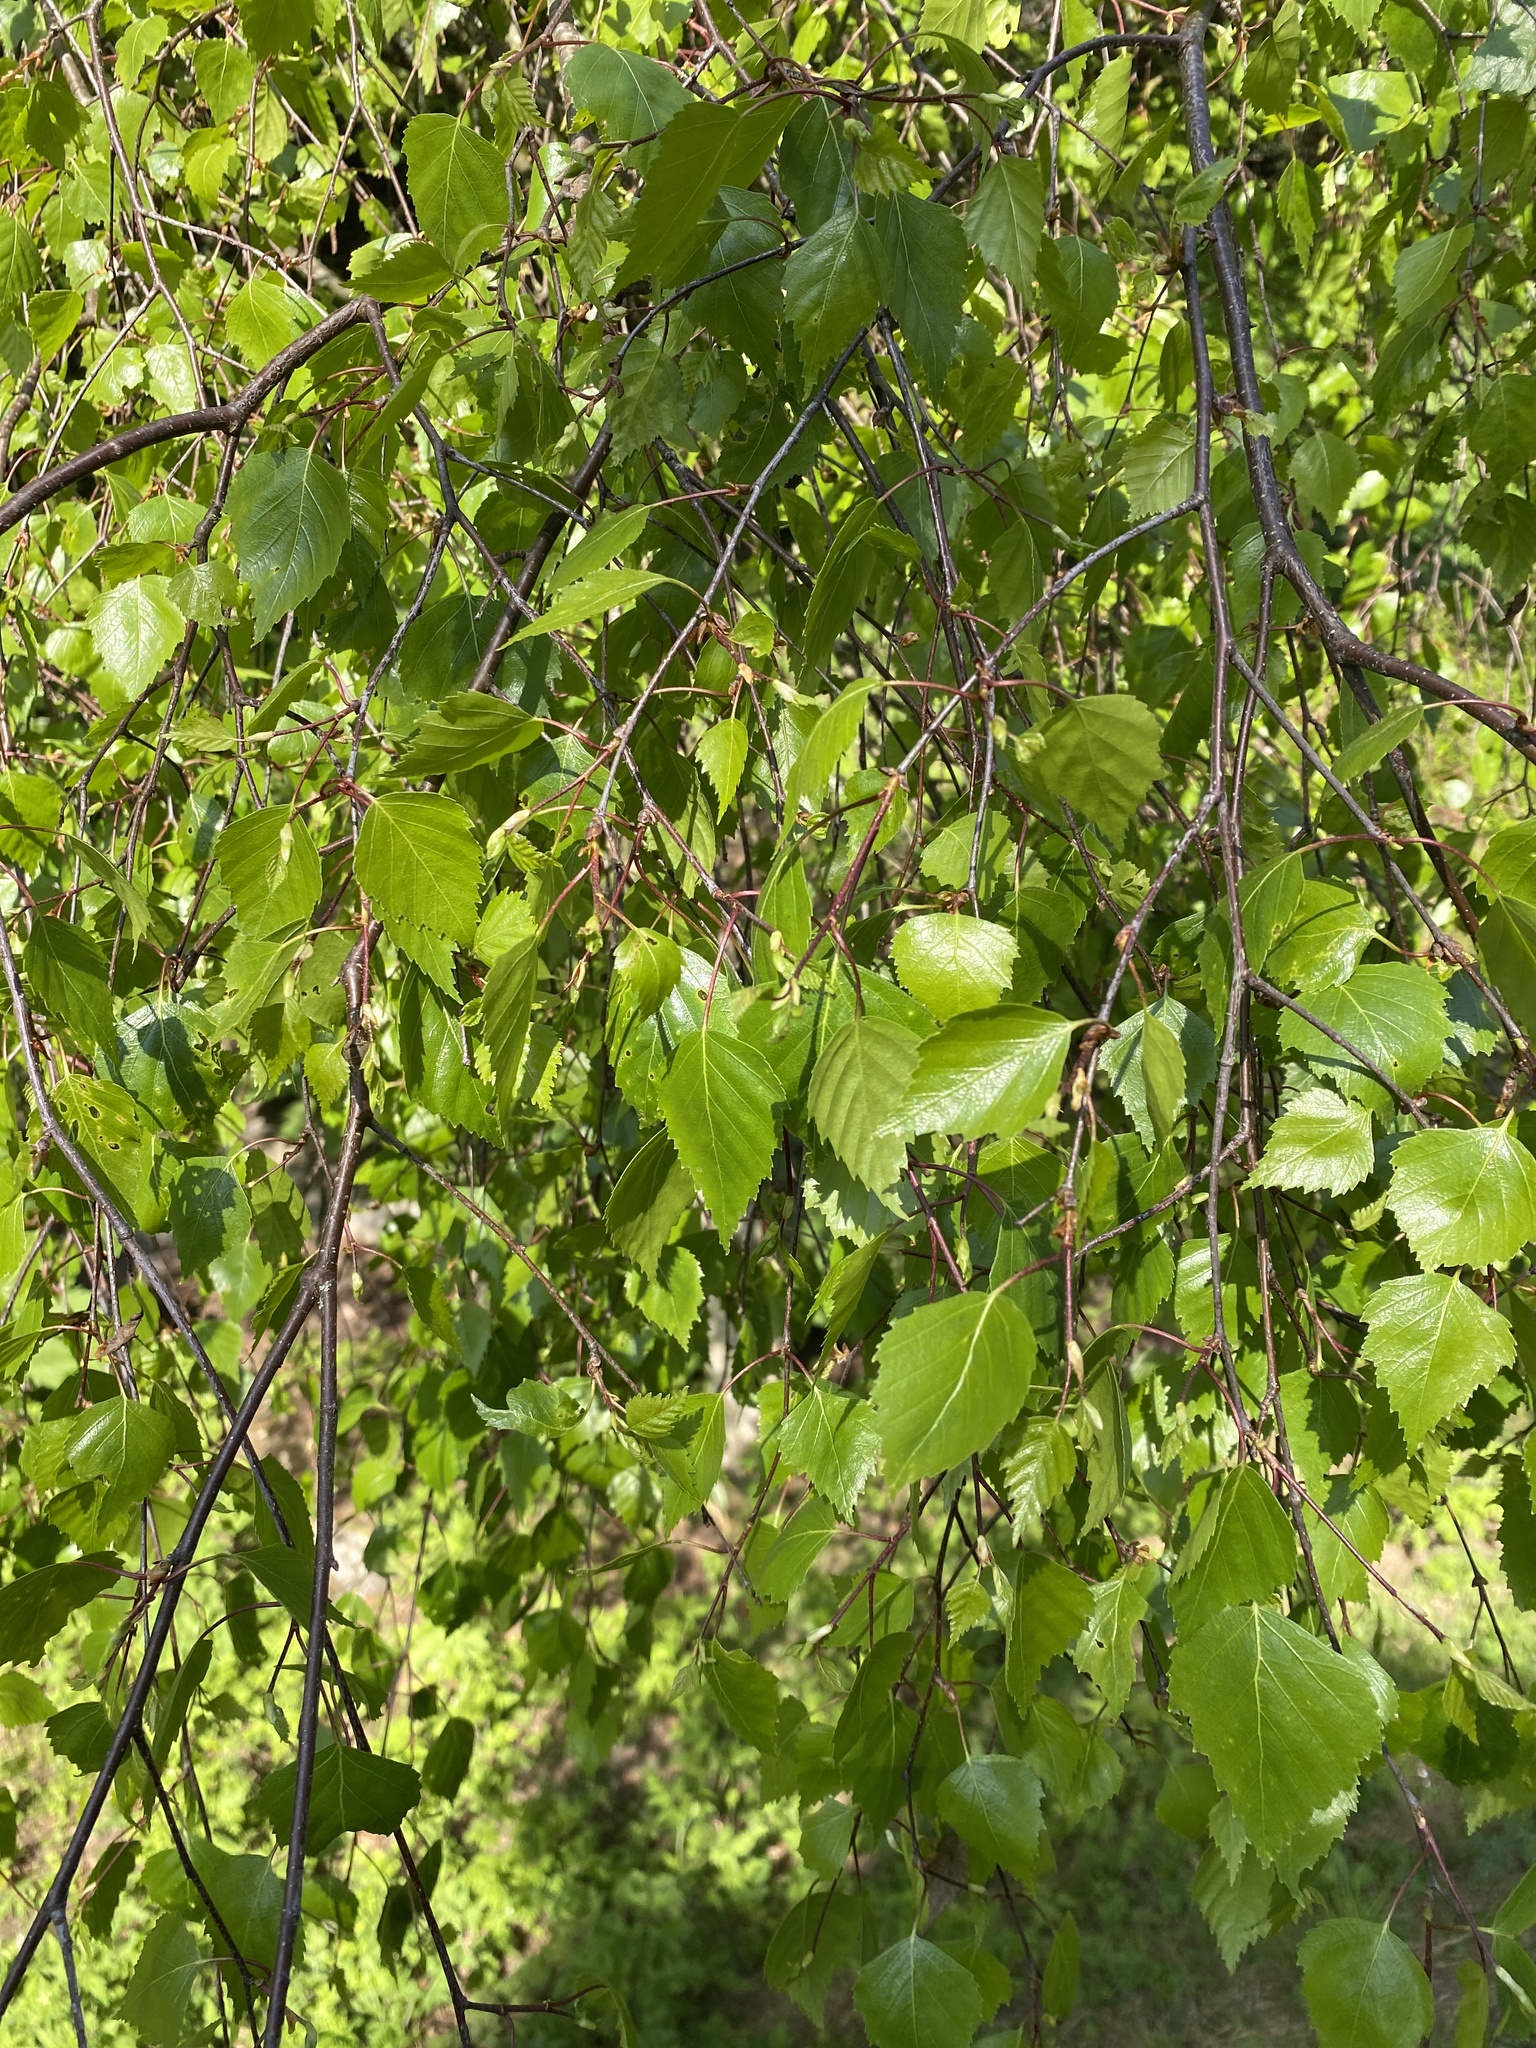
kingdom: Plantae
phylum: Tracheophyta
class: Magnoliopsida
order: Fagales
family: Betulaceae
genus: Betula
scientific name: Betula pendula
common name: Silver birch
